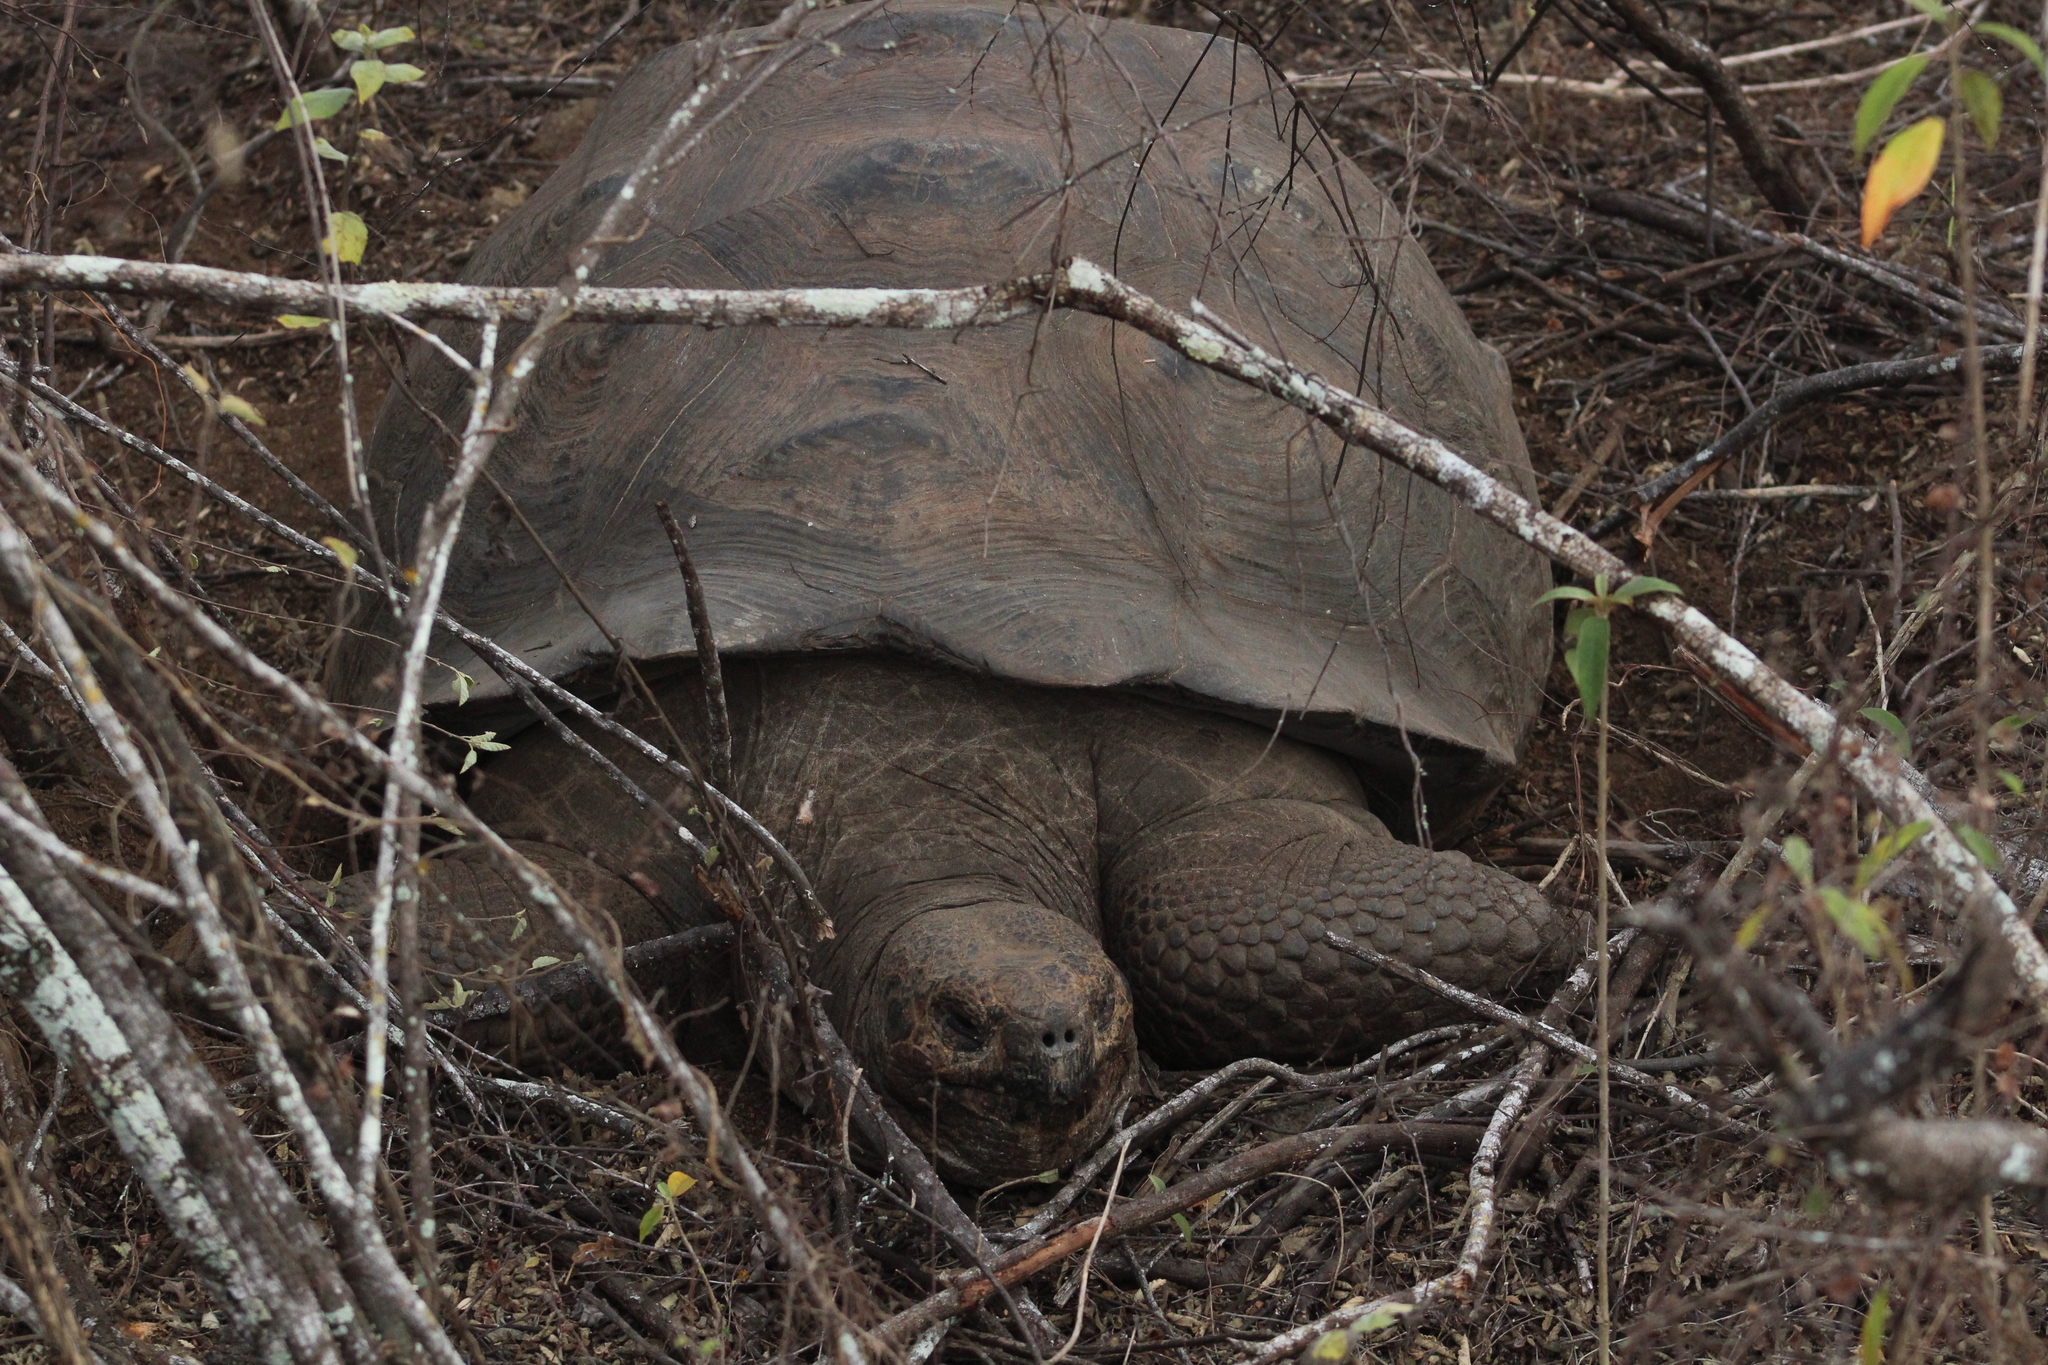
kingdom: Animalia
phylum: Chordata
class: Testudines
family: Testudinidae
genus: Chelonoidis
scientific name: Chelonoidis guntheri
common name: Sierra negra giant tortoise
